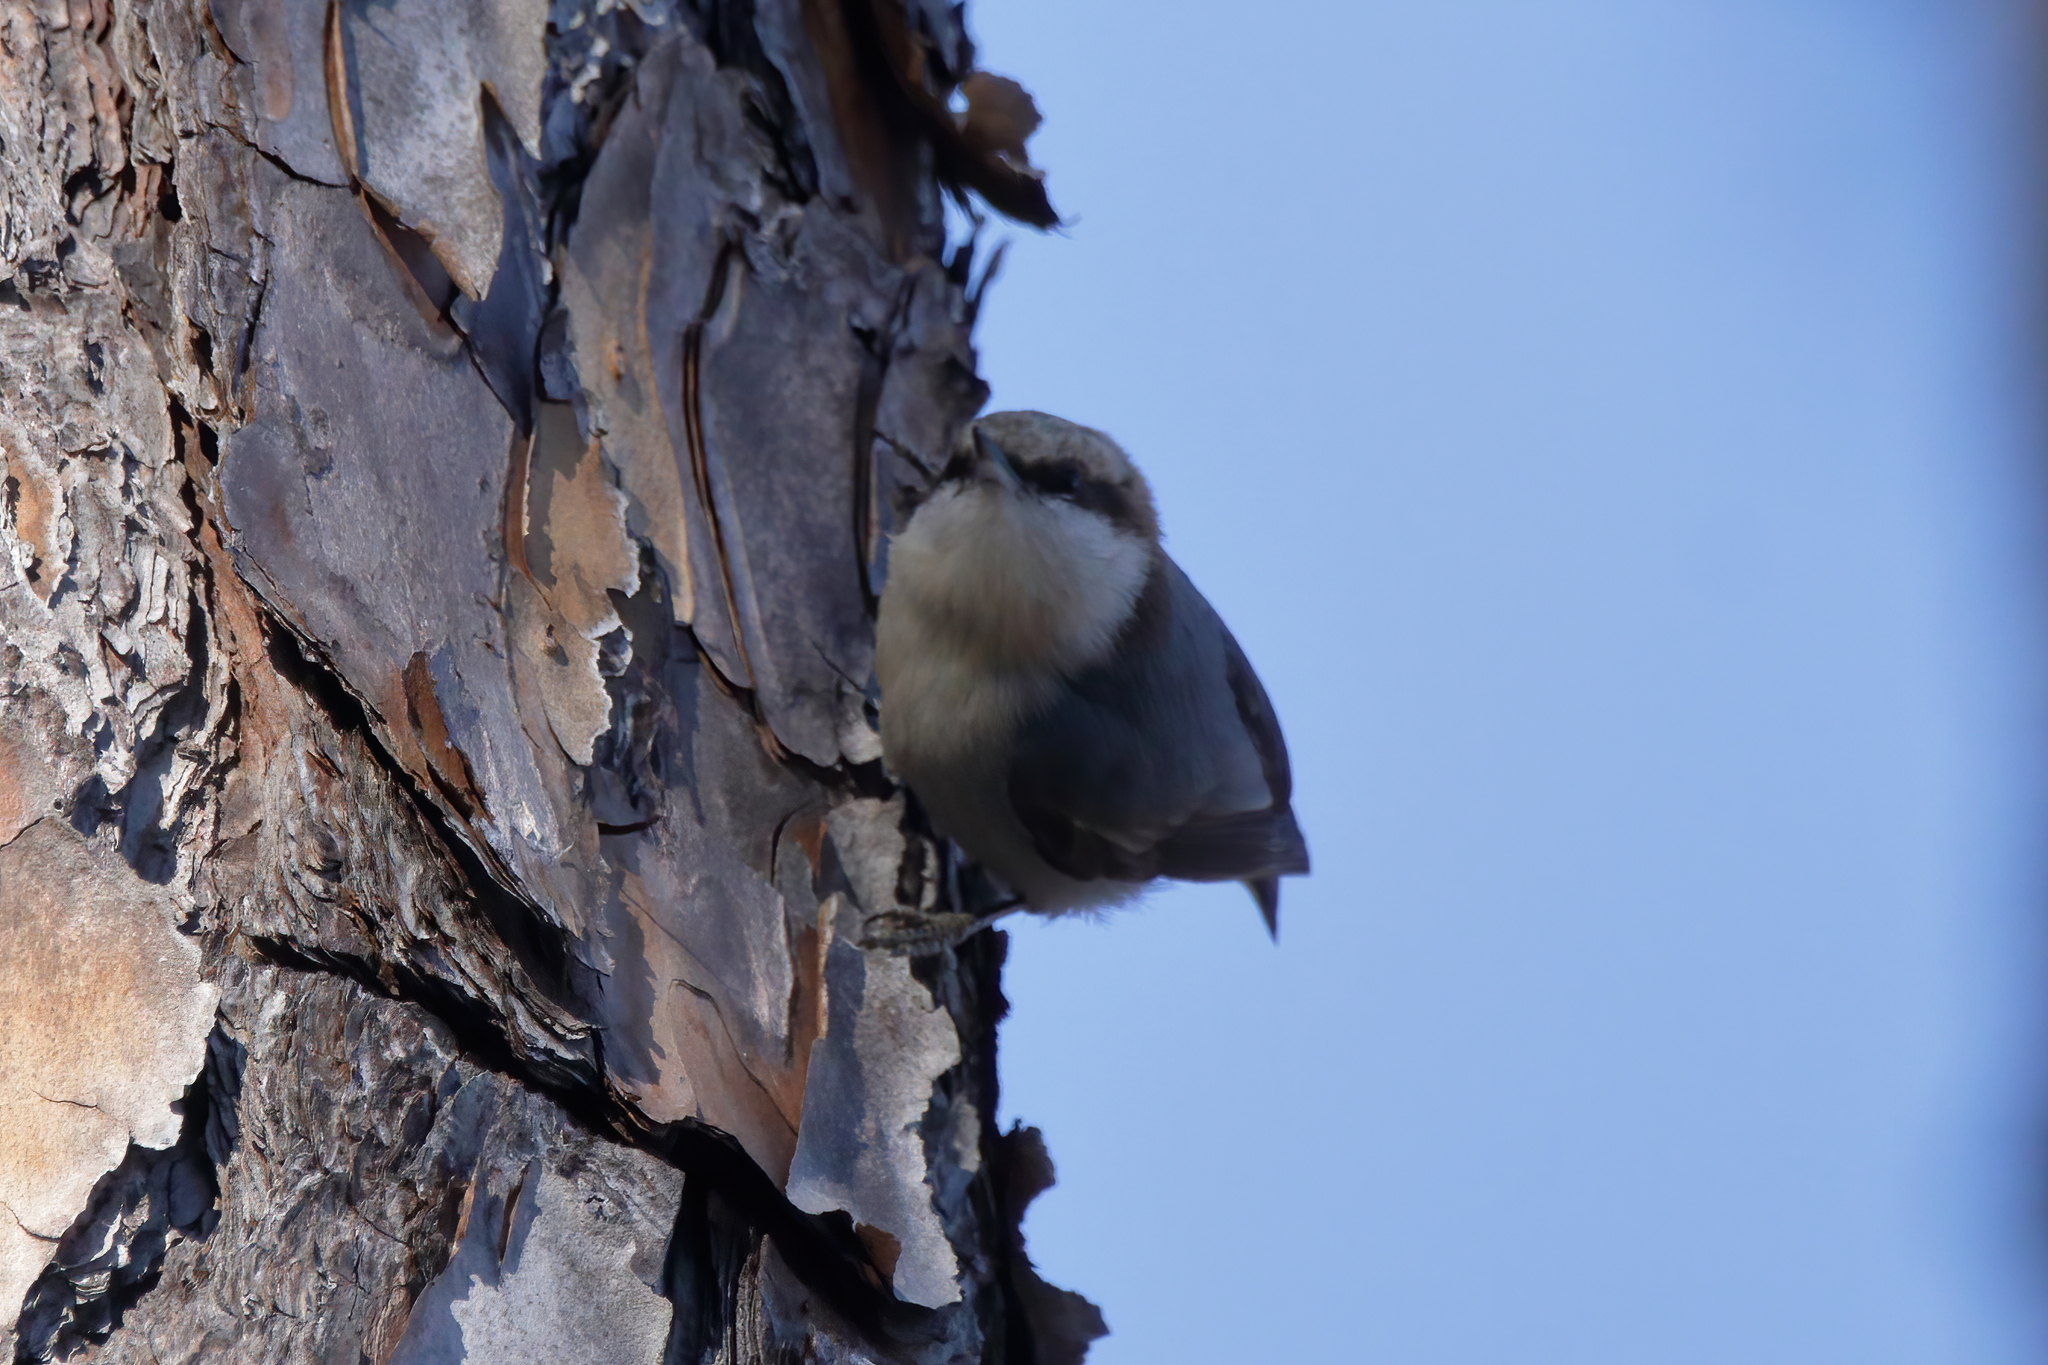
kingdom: Animalia
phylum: Chordata
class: Aves
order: Passeriformes
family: Sittidae
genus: Sitta
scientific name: Sitta pusilla
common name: Brown-headed nuthatch
